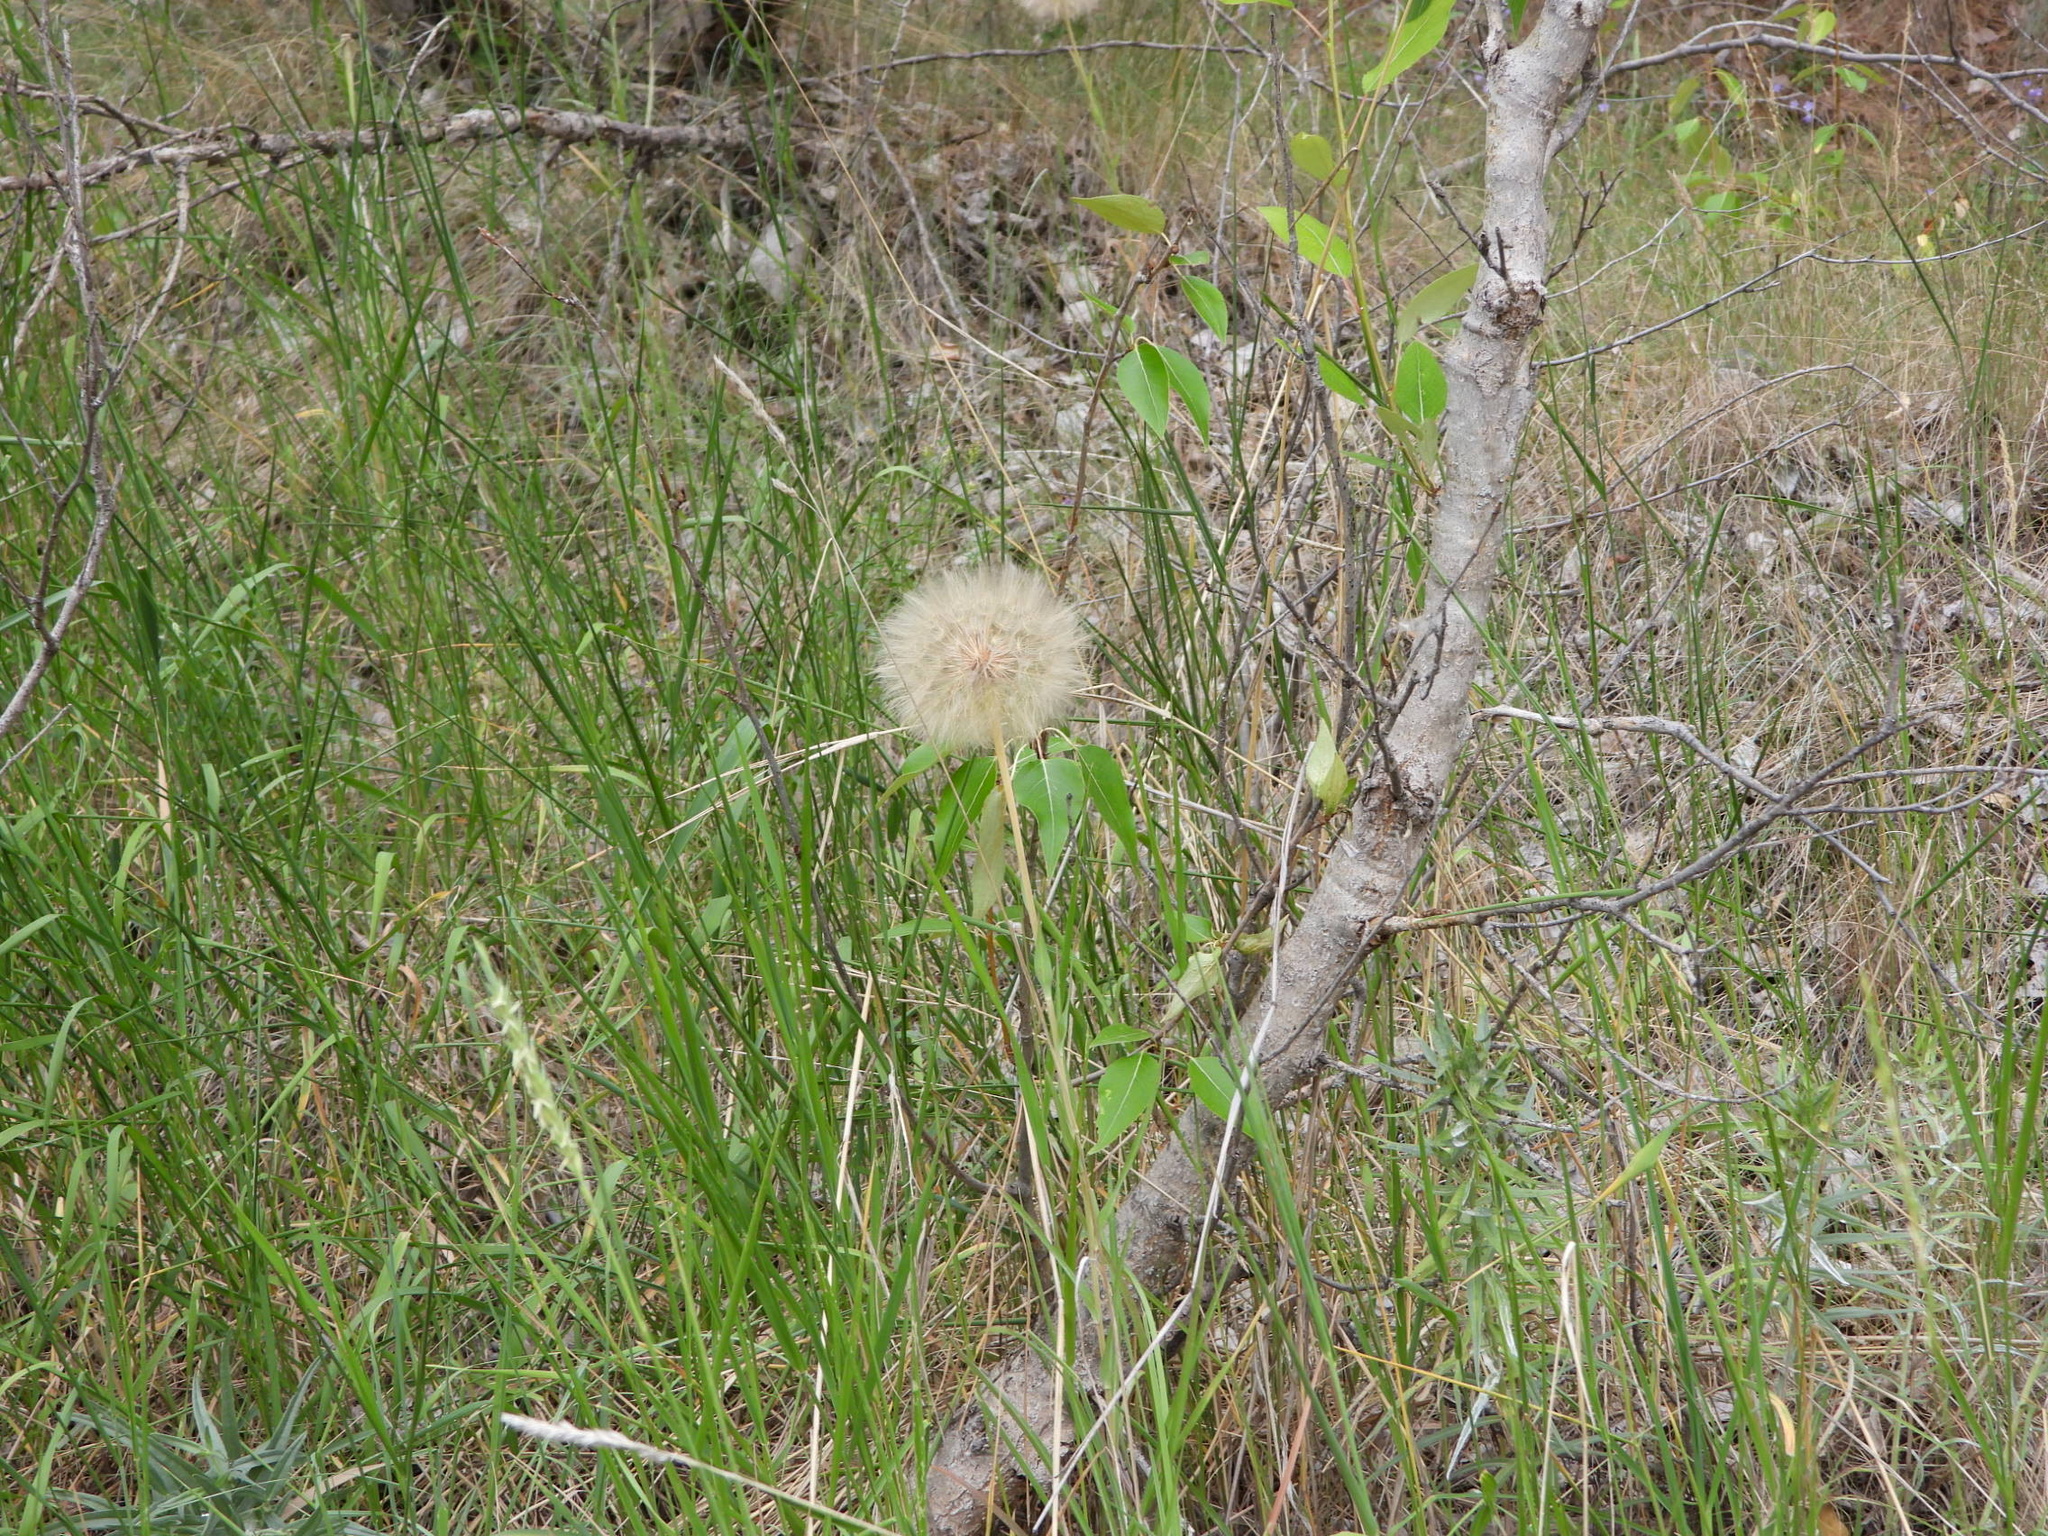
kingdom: Plantae
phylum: Tracheophyta
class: Magnoliopsida
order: Asterales
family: Asteraceae
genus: Tragopogon
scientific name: Tragopogon dubius
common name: Yellow salsify
